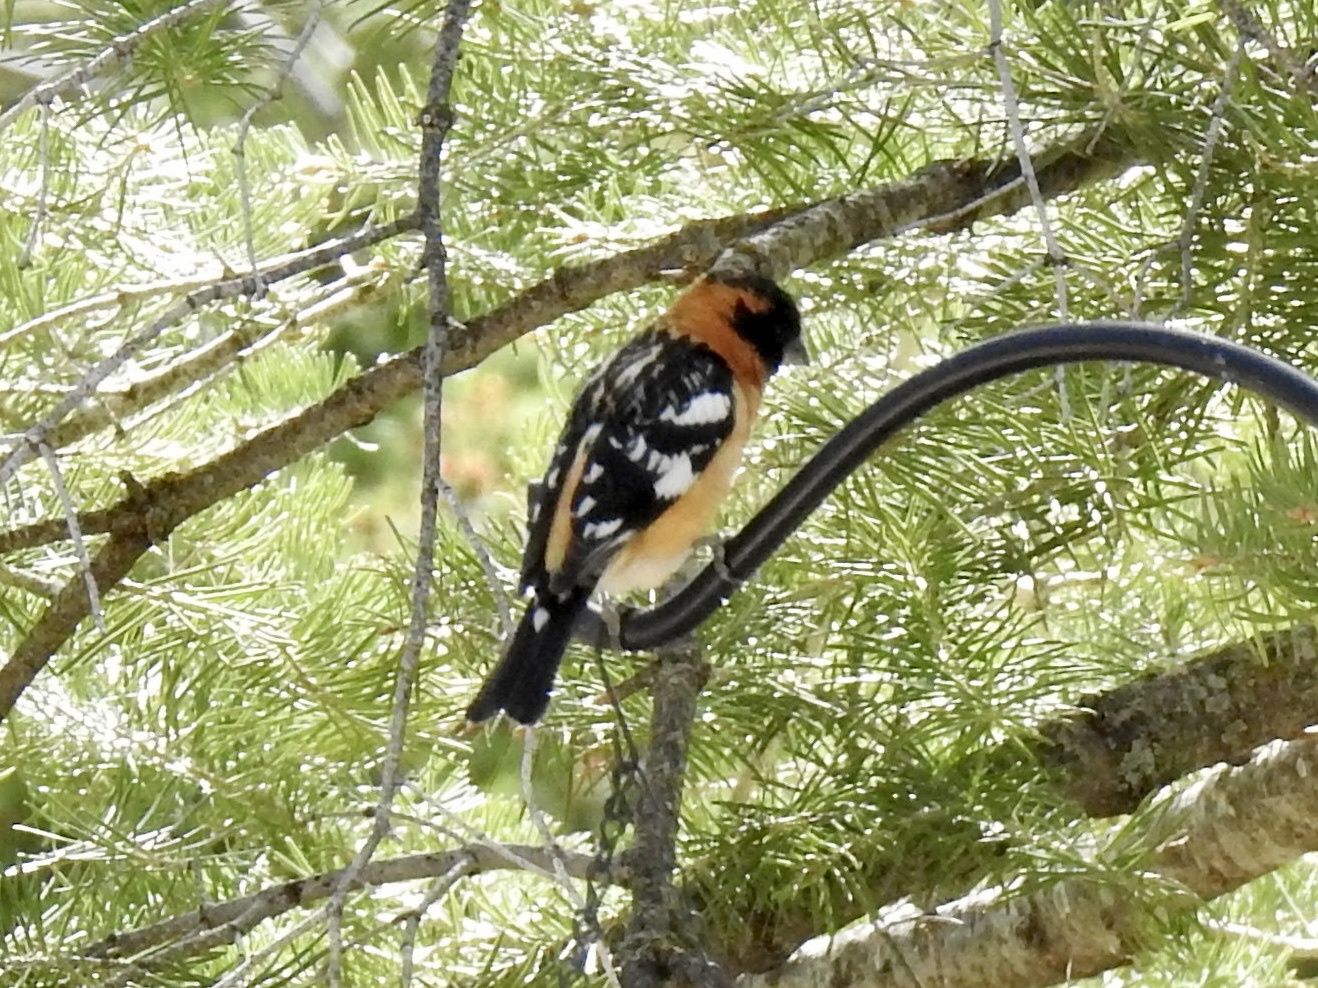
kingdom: Animalia
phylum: Chordata
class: Aves
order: Passeriformes
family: Cardinalidae
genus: Pheucticus
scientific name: Pheucticus melanocephalus
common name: Black-headed grosbeak
